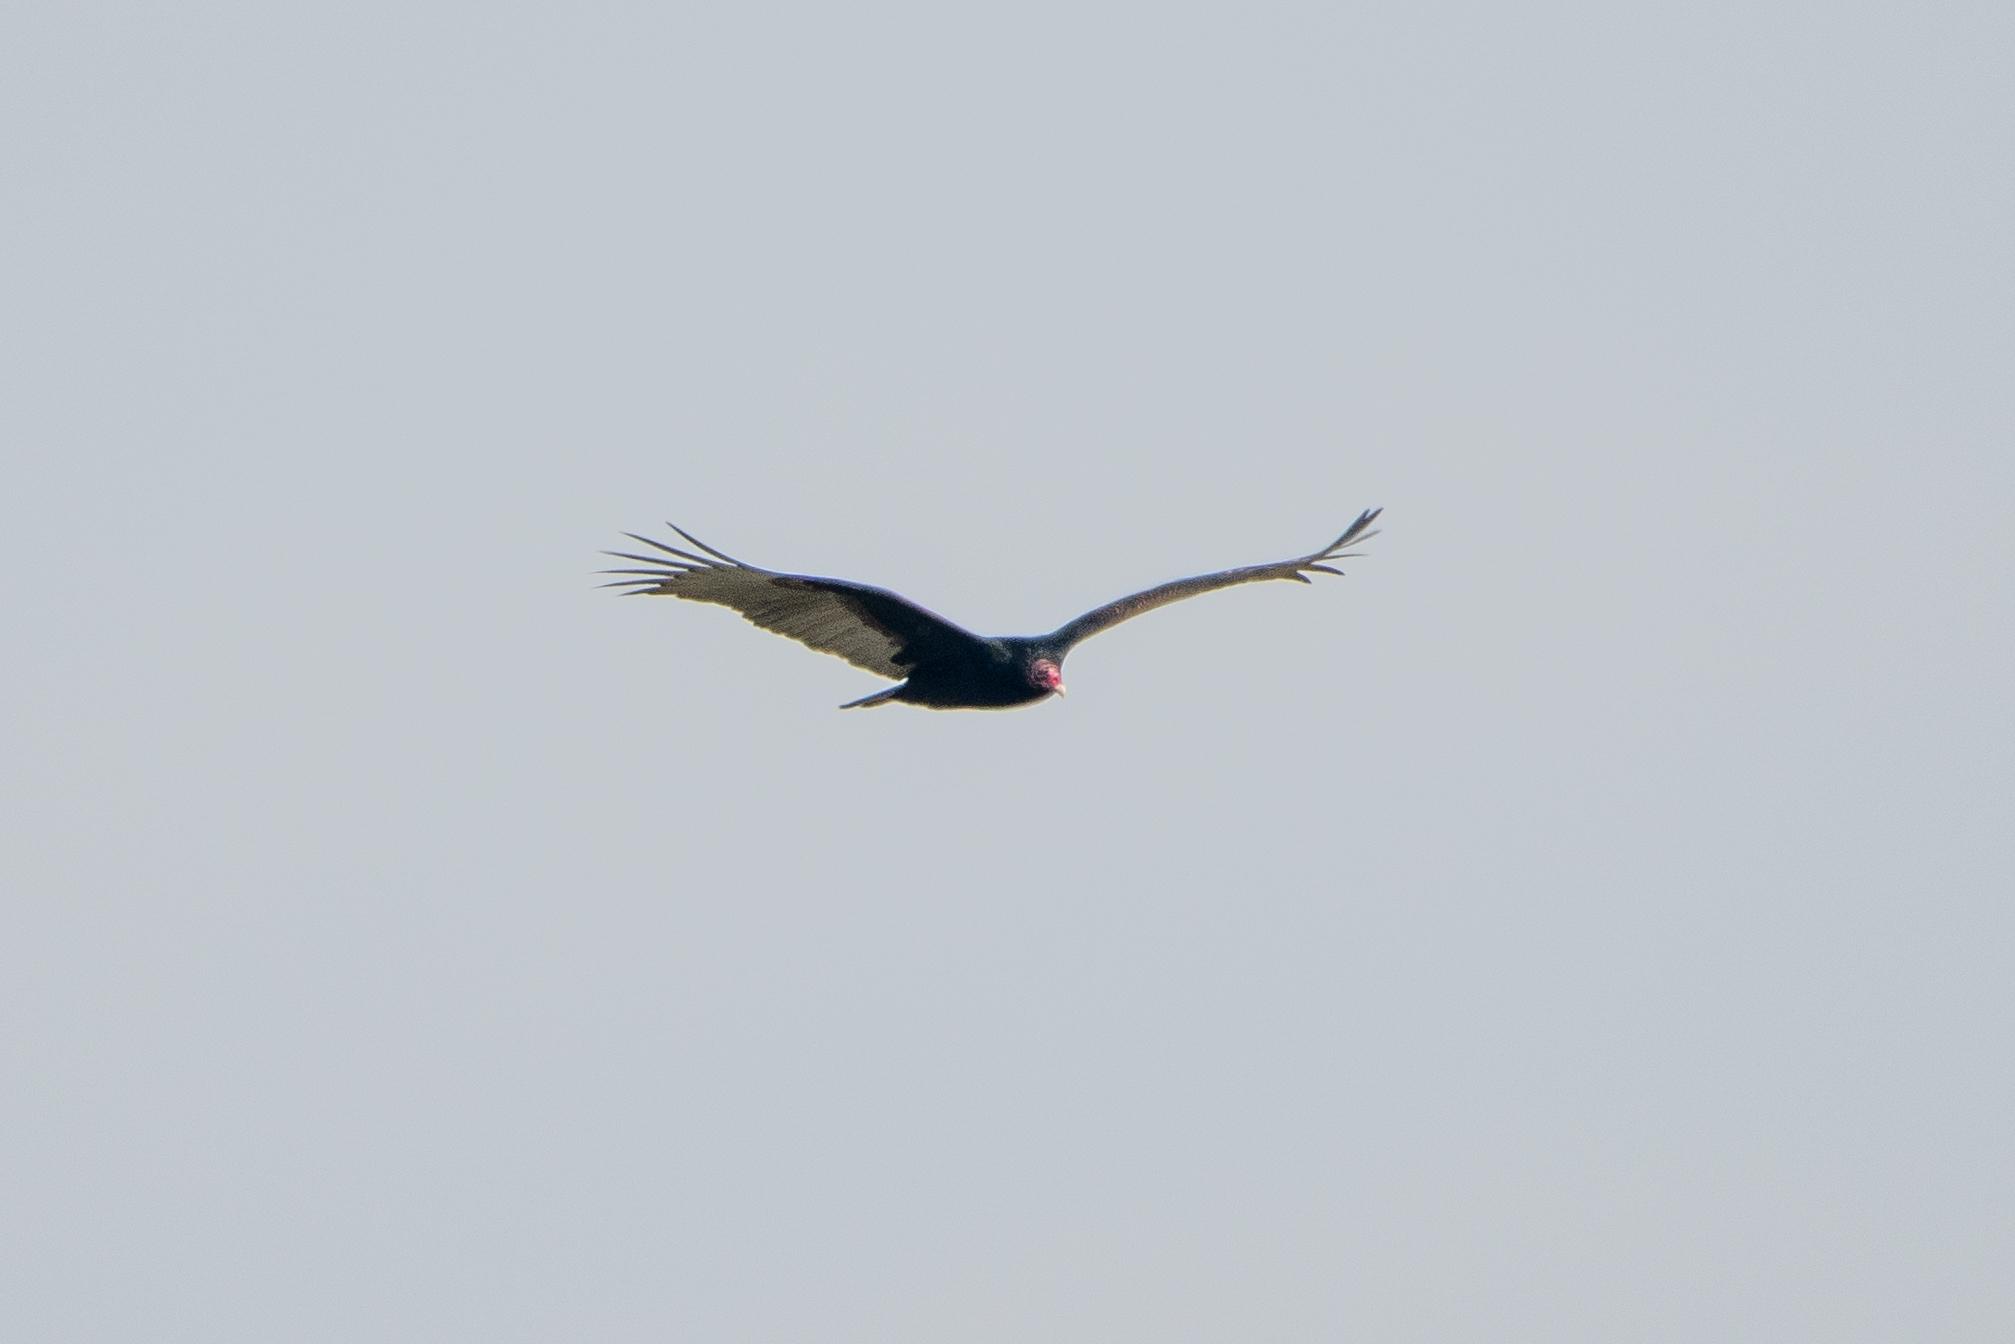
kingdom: Animalia
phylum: Chordata
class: Aves
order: Accipitriformes
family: Cathartidae
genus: Cathartes
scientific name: Cathartes aura
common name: Turkey vulture
